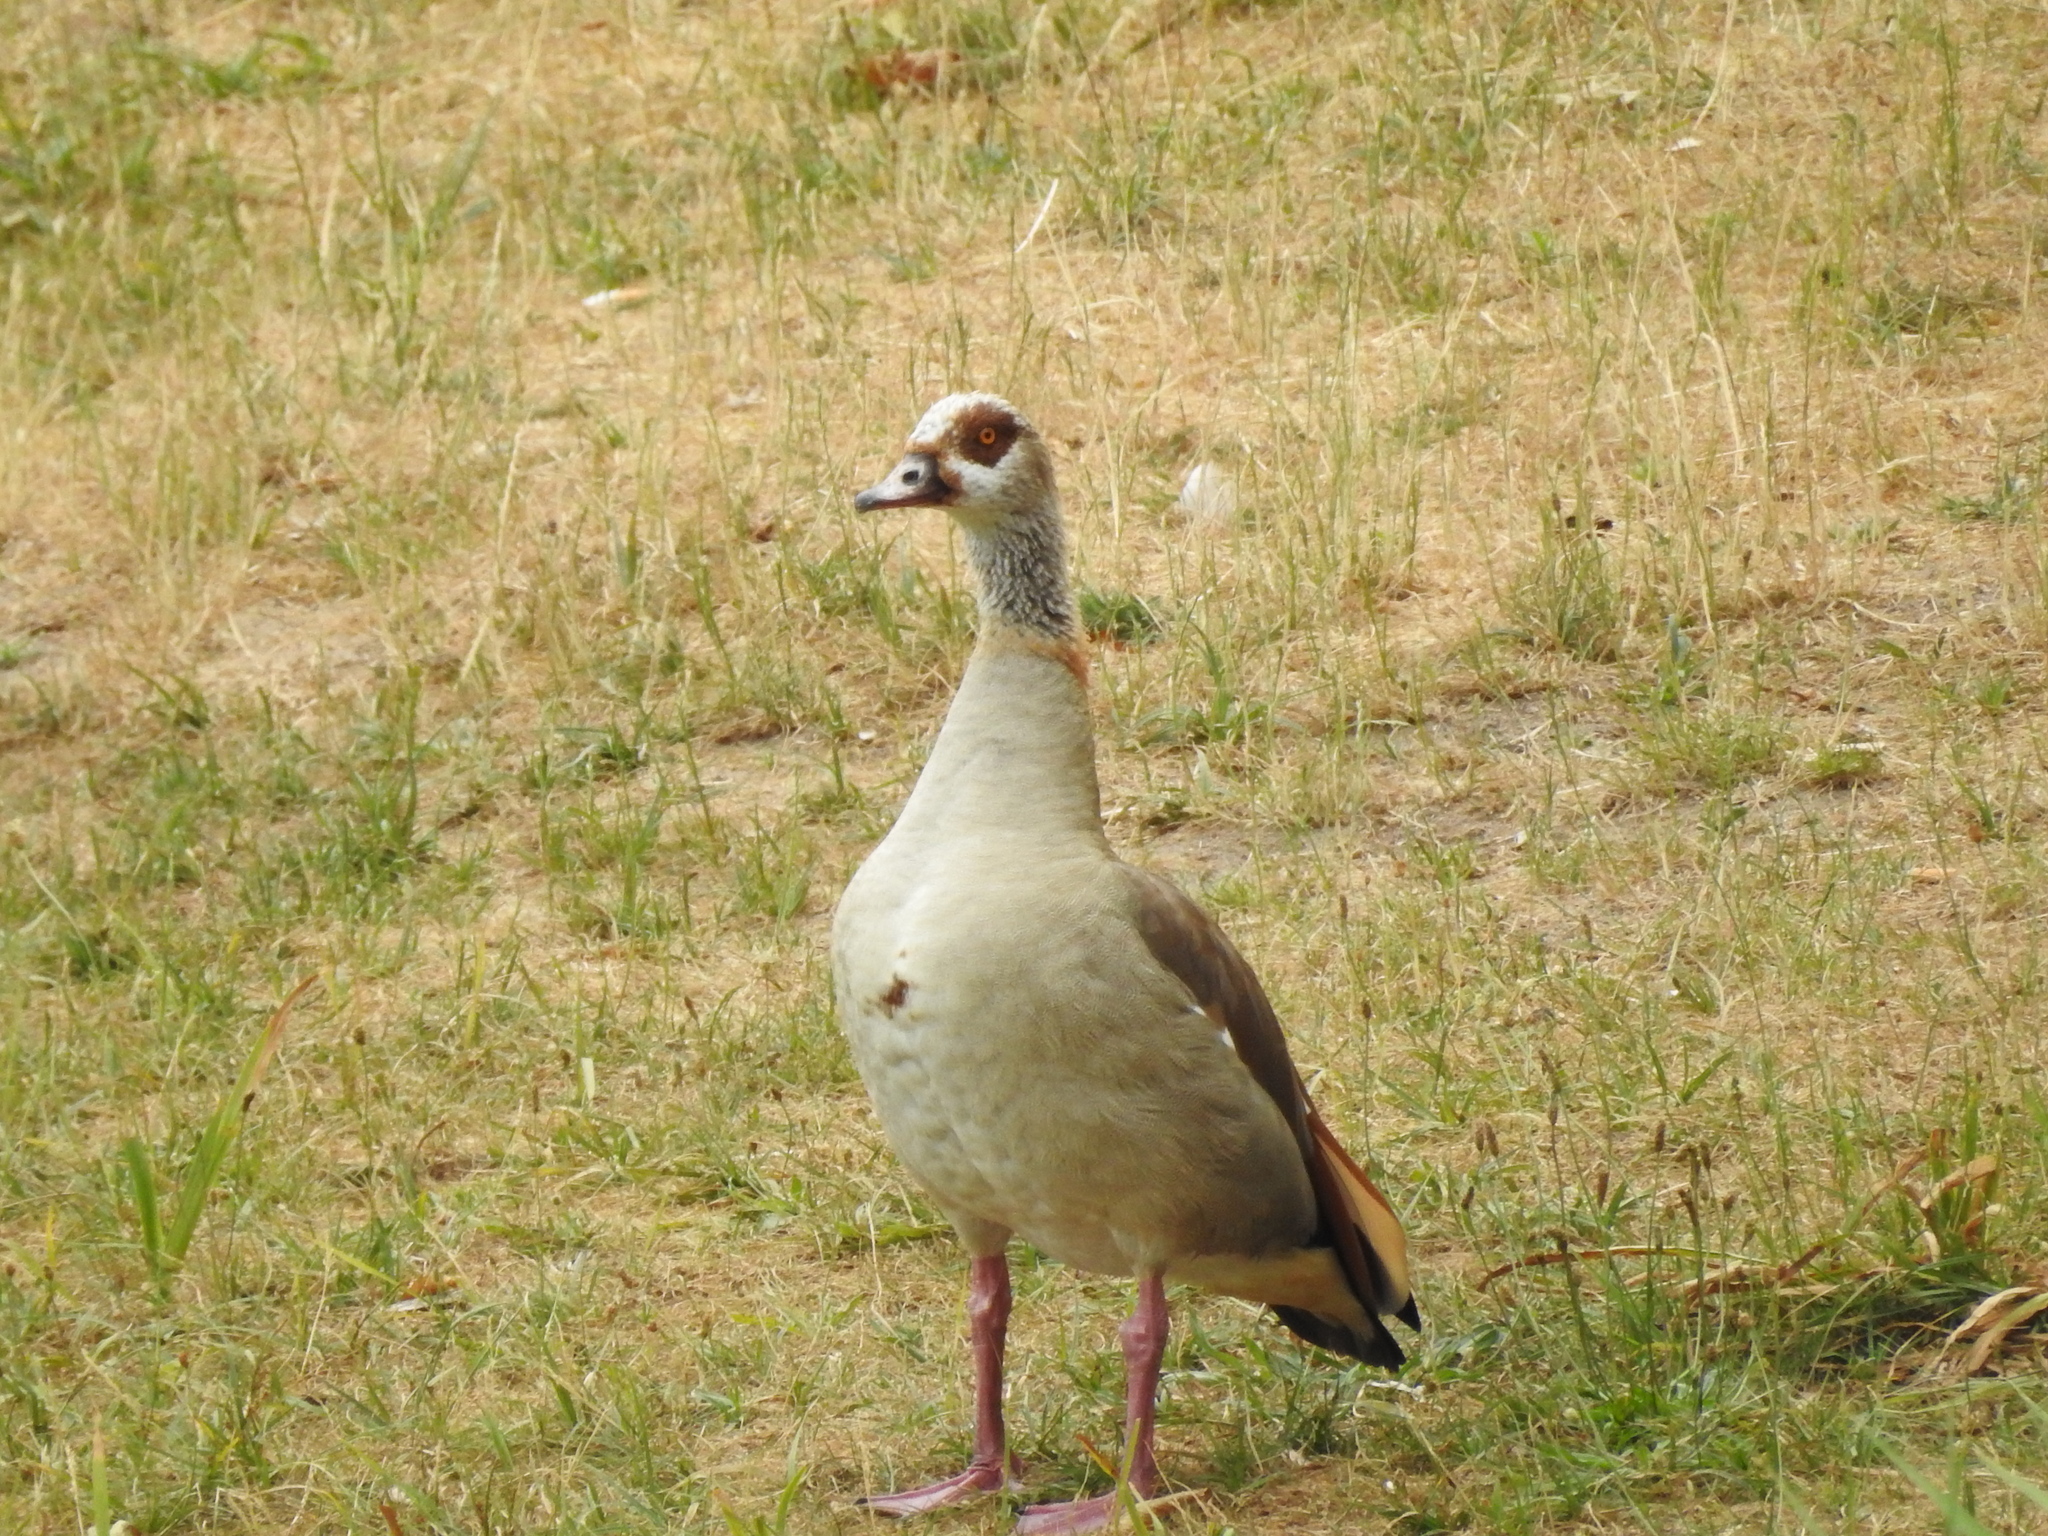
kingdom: Animalia
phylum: Chordata
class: Aves
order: Anseriformes
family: Anatidae
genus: Alopochen
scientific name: Alopochen aegyptiaca
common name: Egyptian goose
